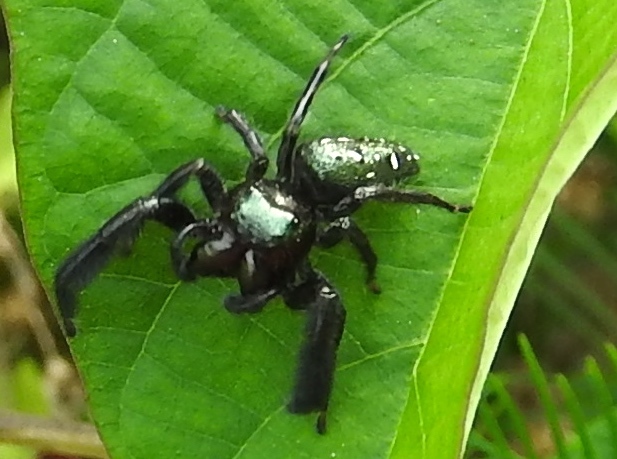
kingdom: Animalia
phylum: Arthropoda
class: Arachnida
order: Araneae
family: Salticidae
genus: Paraphidippus
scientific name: Paraphidippus fartilis
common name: Jumping spiders
